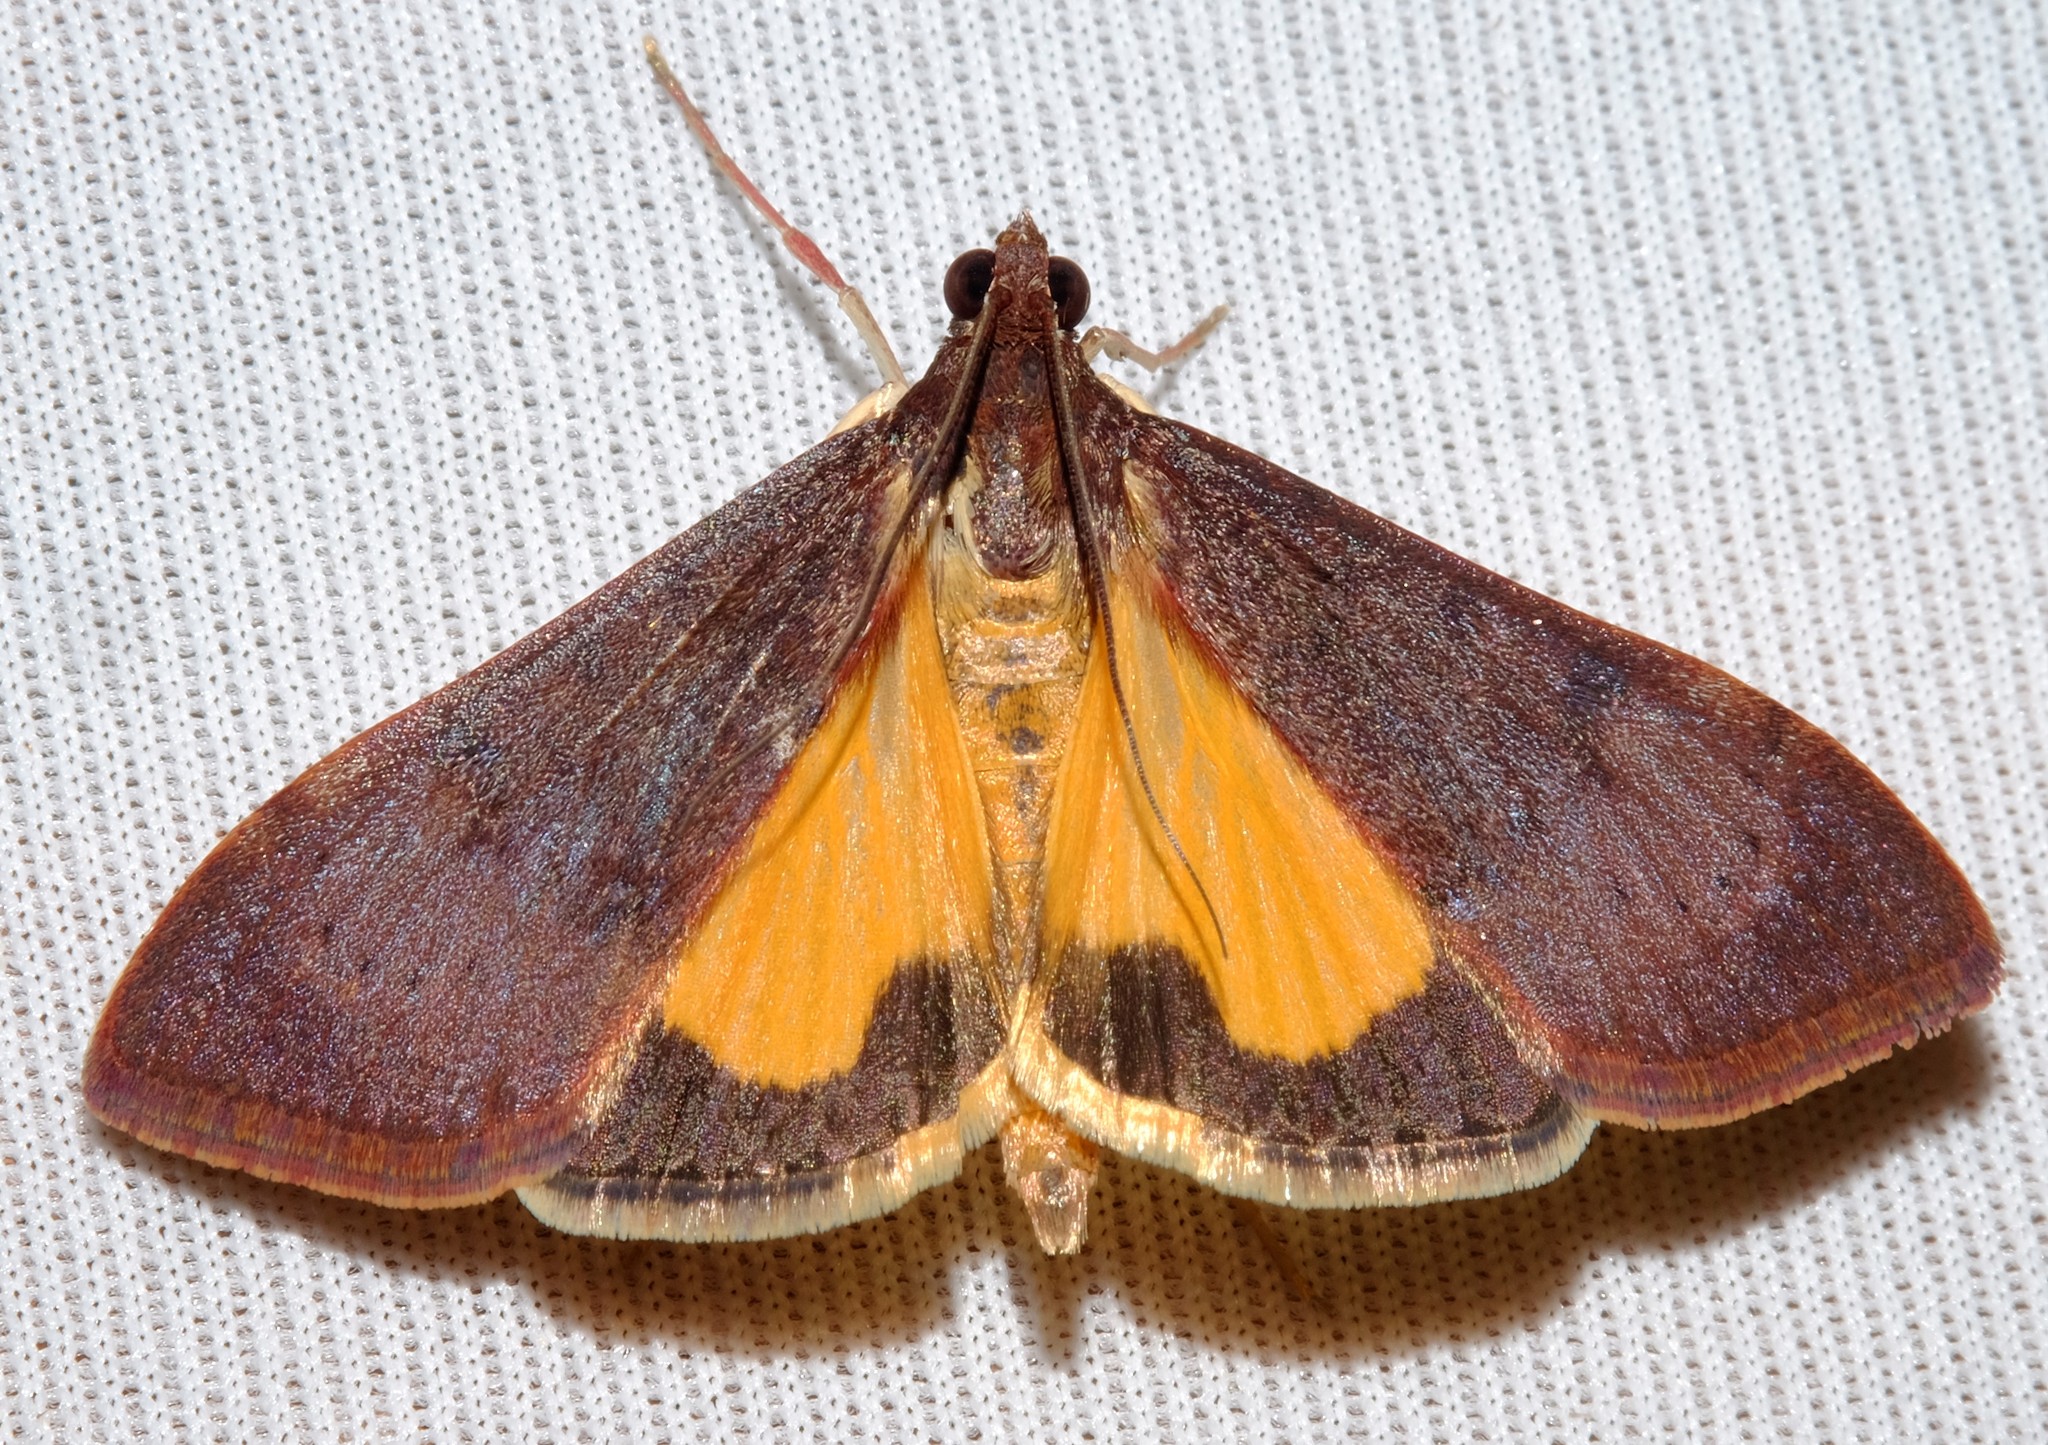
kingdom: Animalia
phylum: Arthropoda
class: Insecta
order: Lepidoptera
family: Crambidae
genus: Uresiphita
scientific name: Uresiphita ornithopteralis
